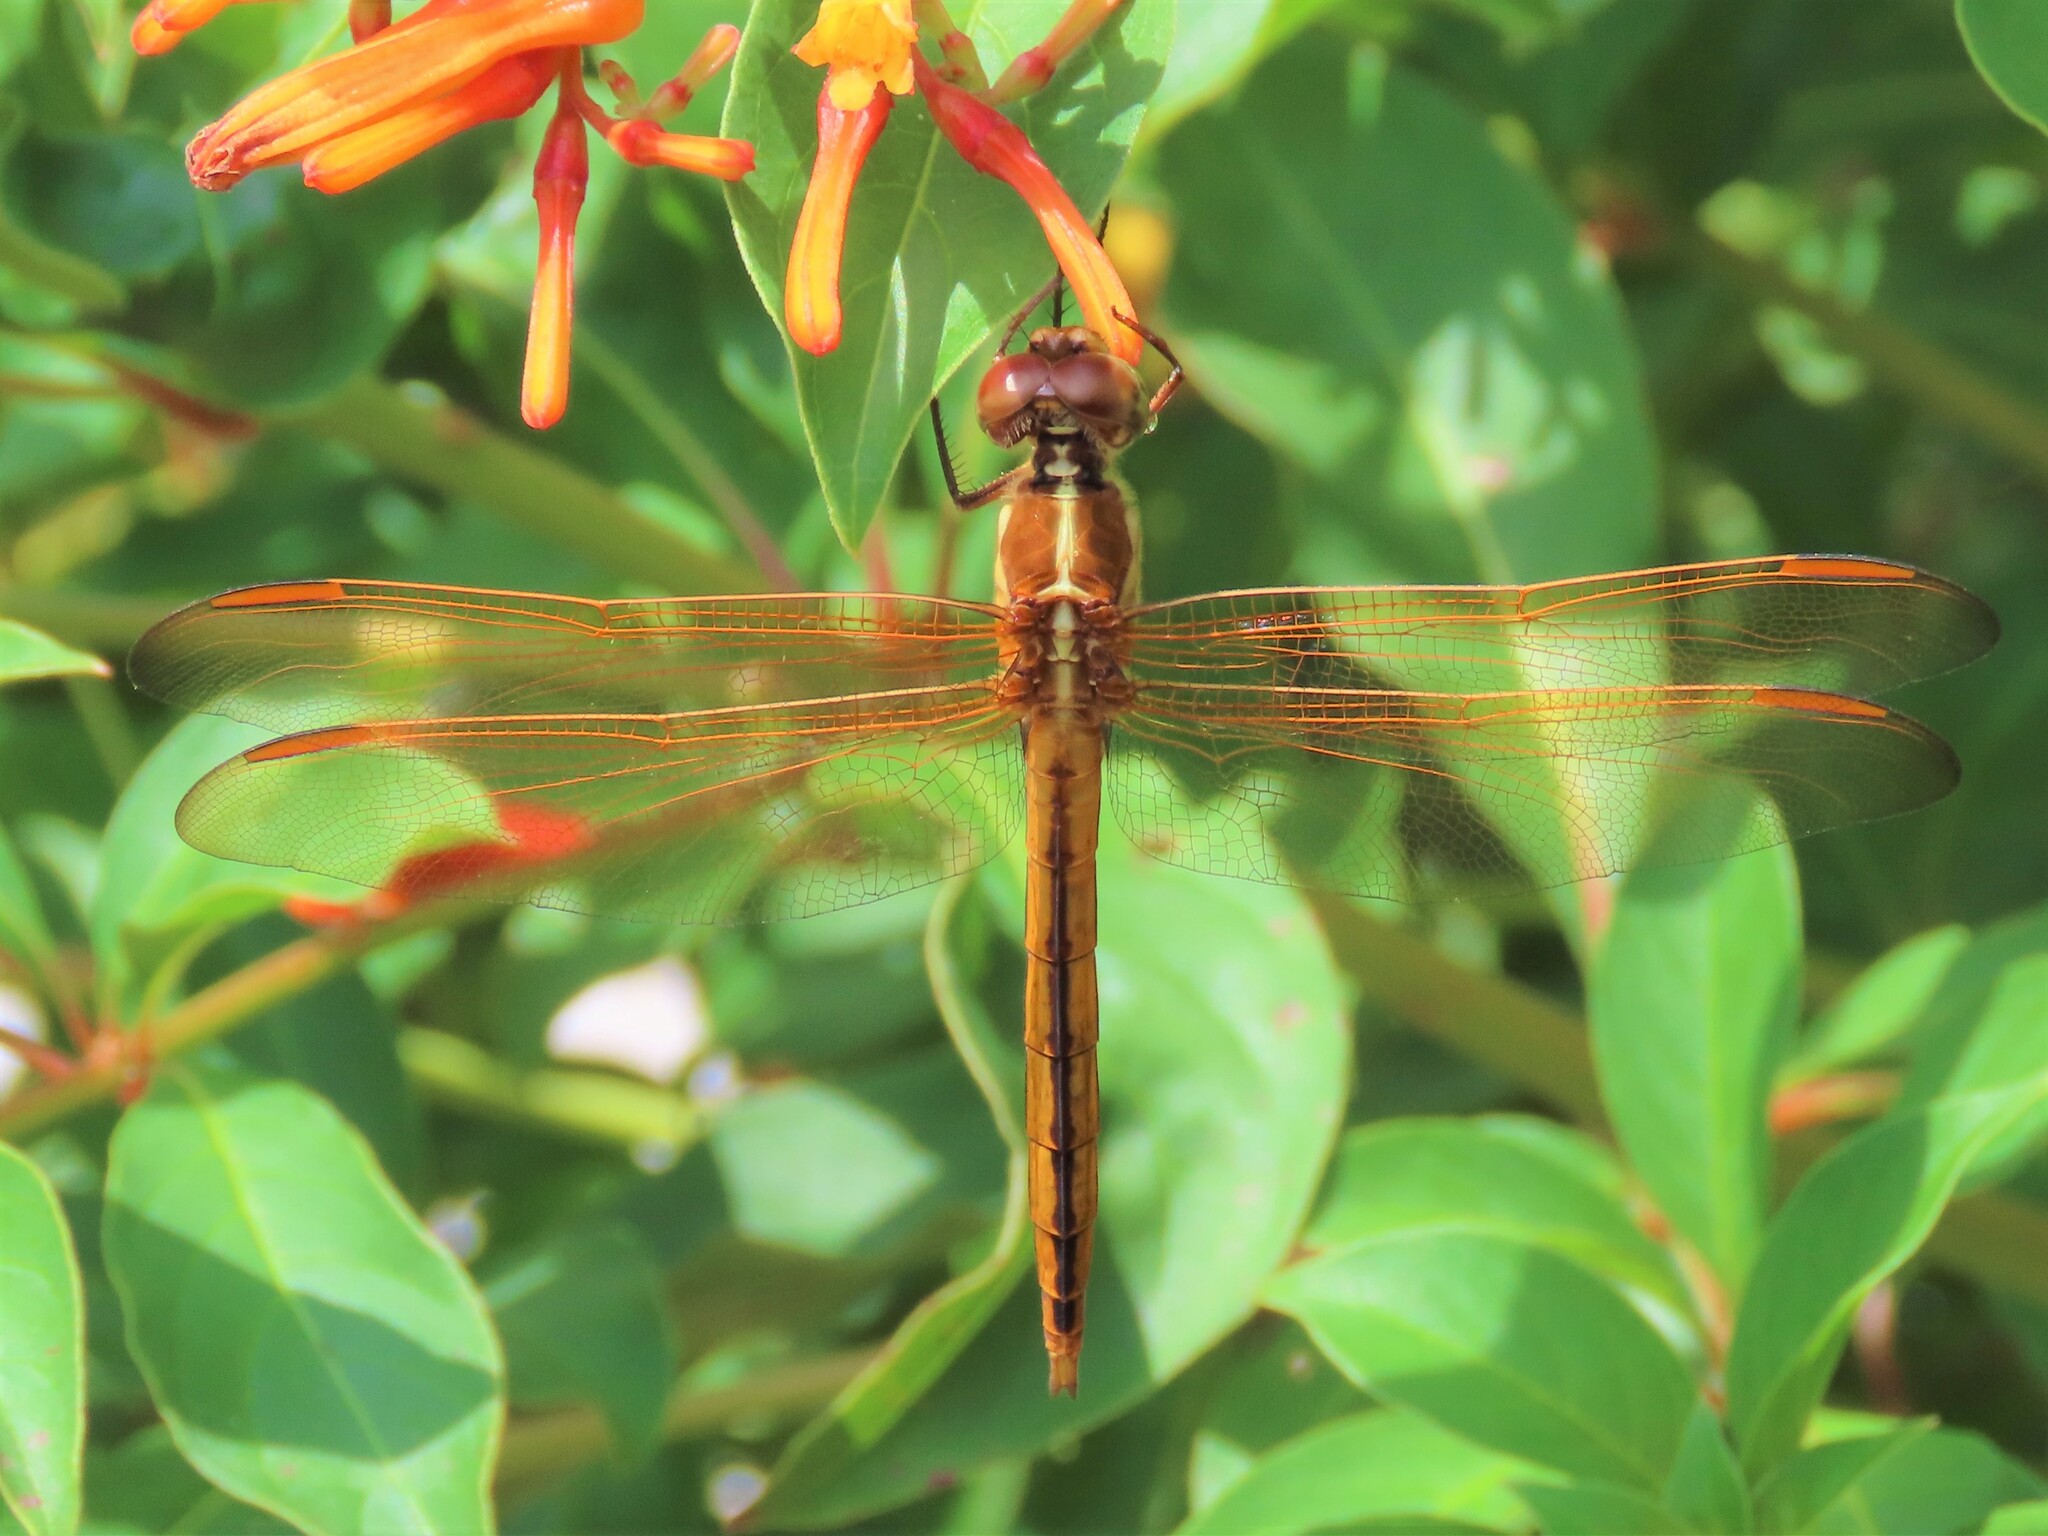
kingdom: Animalia
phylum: Arthropoda
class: Insecta
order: Odonata
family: Libellulidae
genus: Libellula
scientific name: Libellula auripennis
